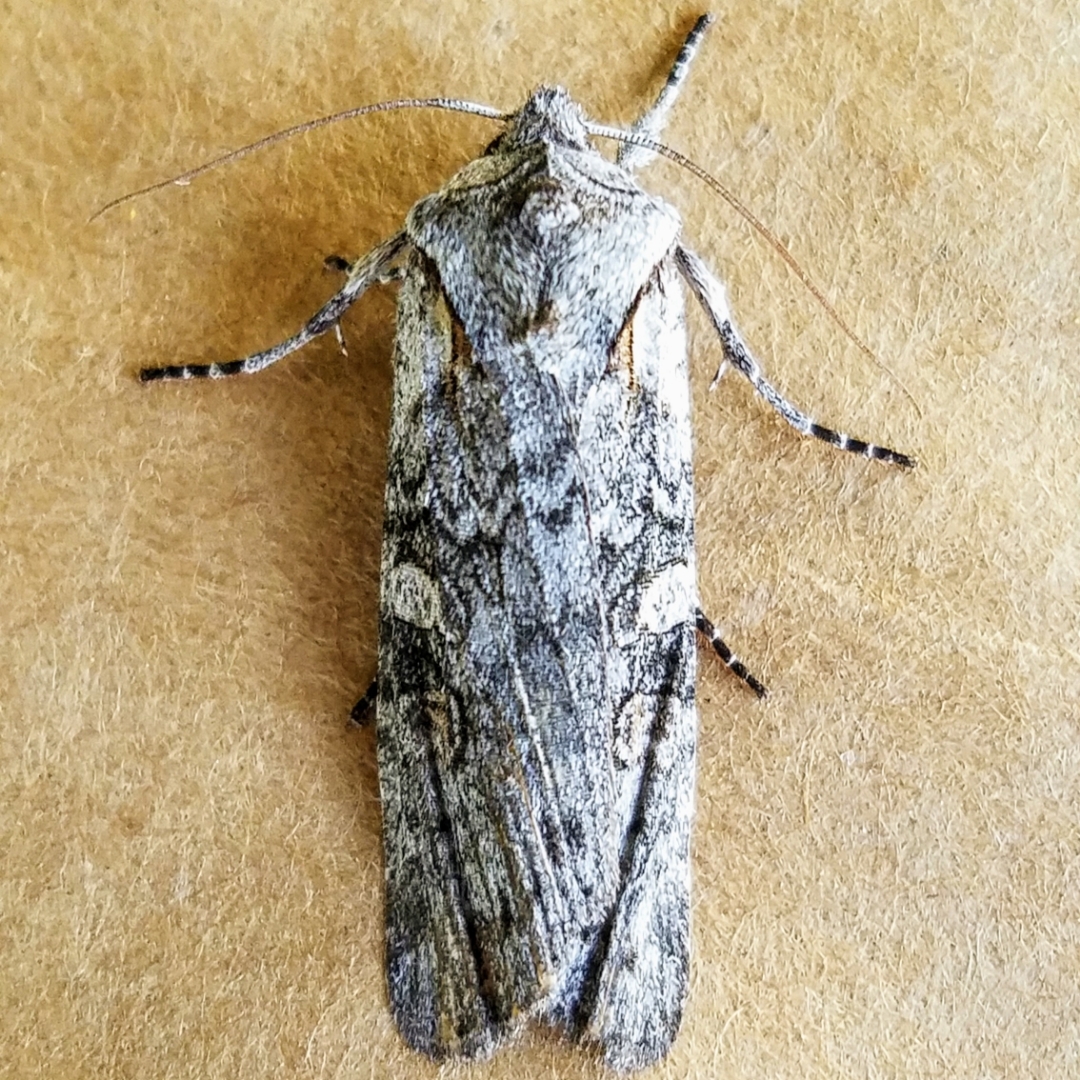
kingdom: Animalia
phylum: Arthropoda
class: Insecta
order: Lepidoptera
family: Noctuidae
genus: Lithophane
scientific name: Lithophane pertorrida
